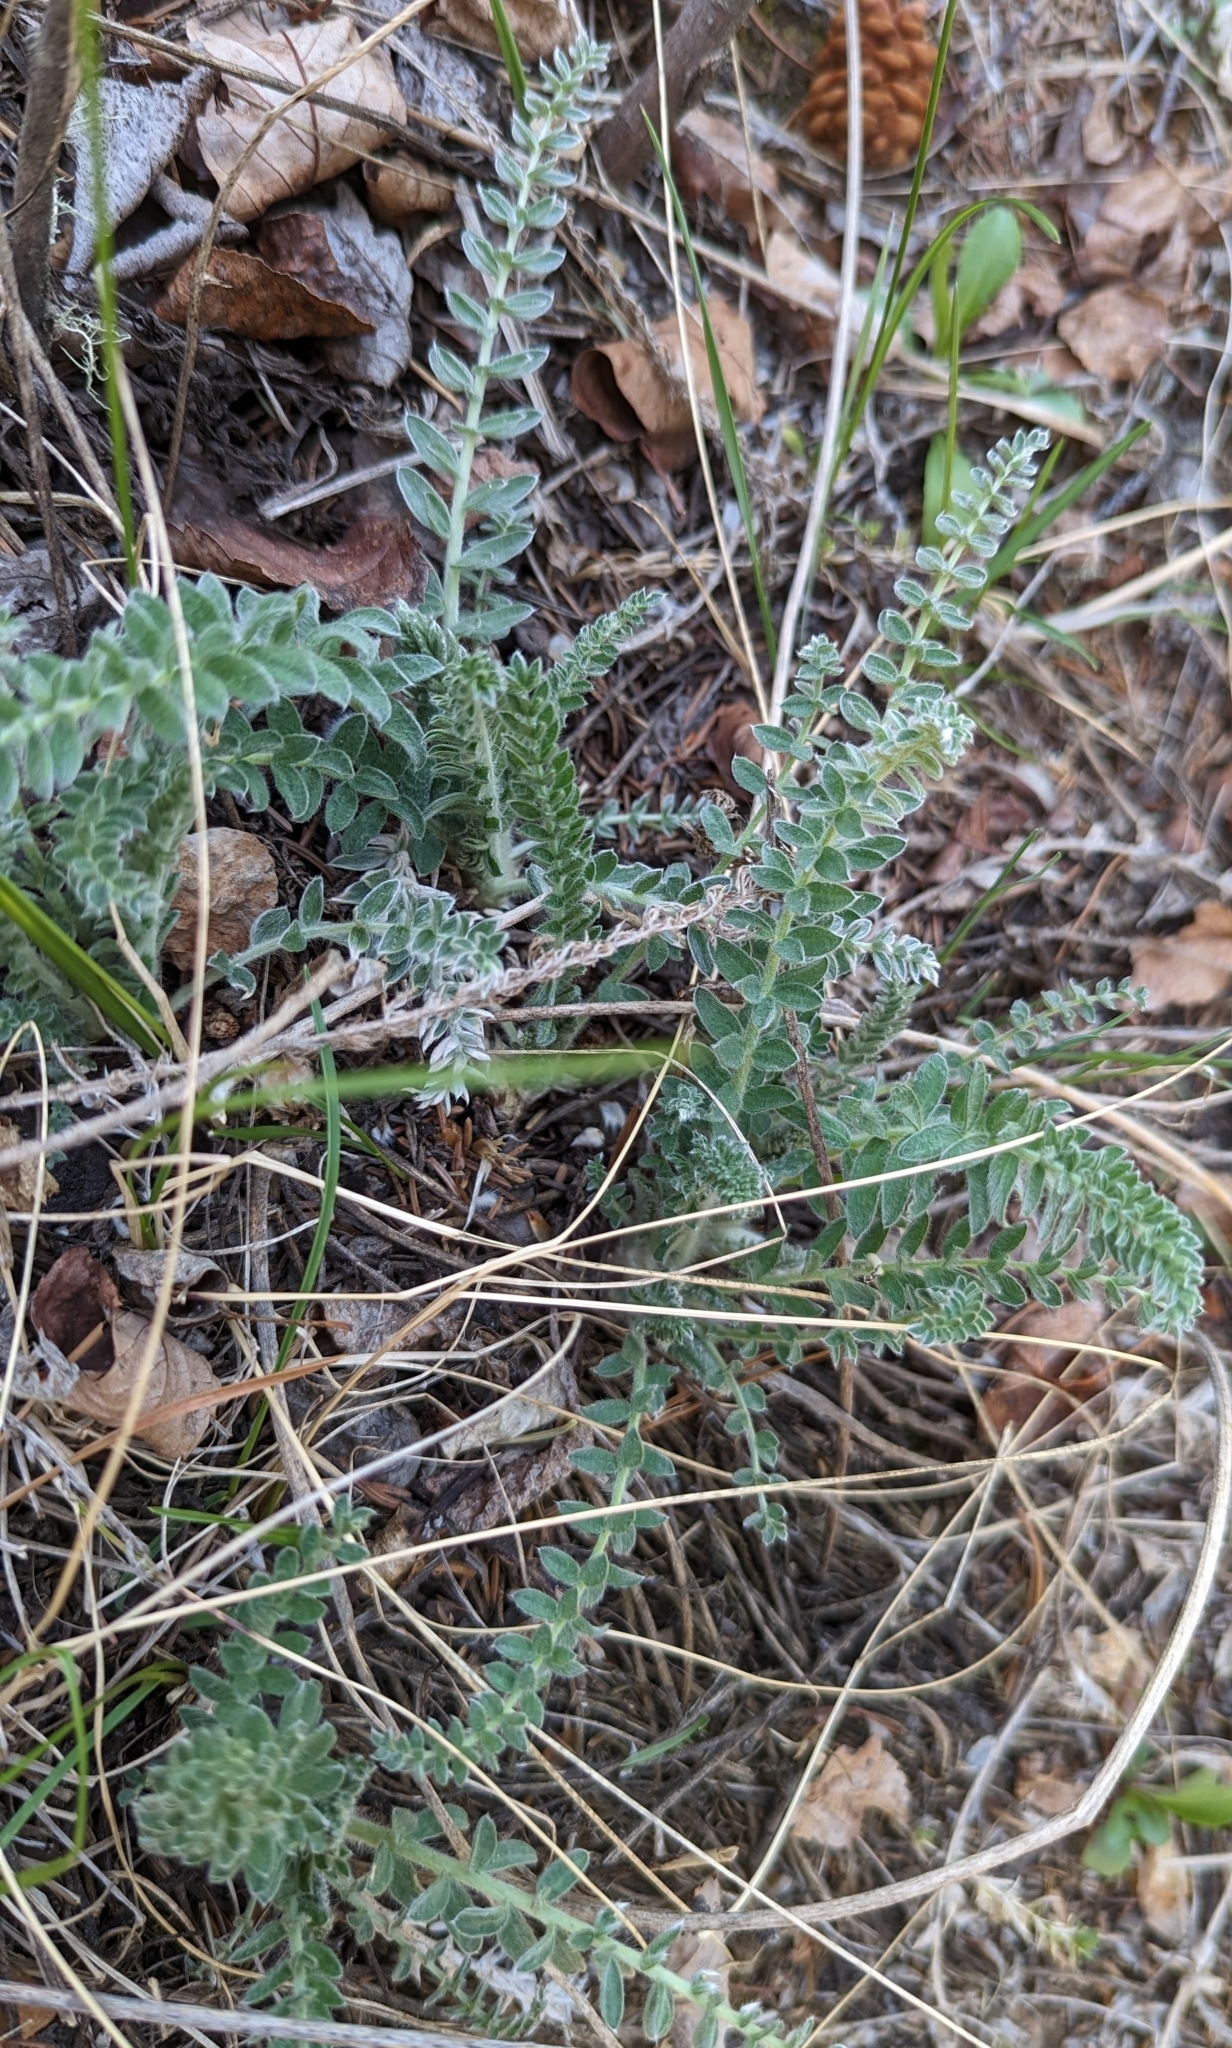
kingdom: Plantae
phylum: Tracheophyta
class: Magnoliopsida
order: Fabales
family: Fabaceae
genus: Oxytropis
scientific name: Oxytropis splendens
